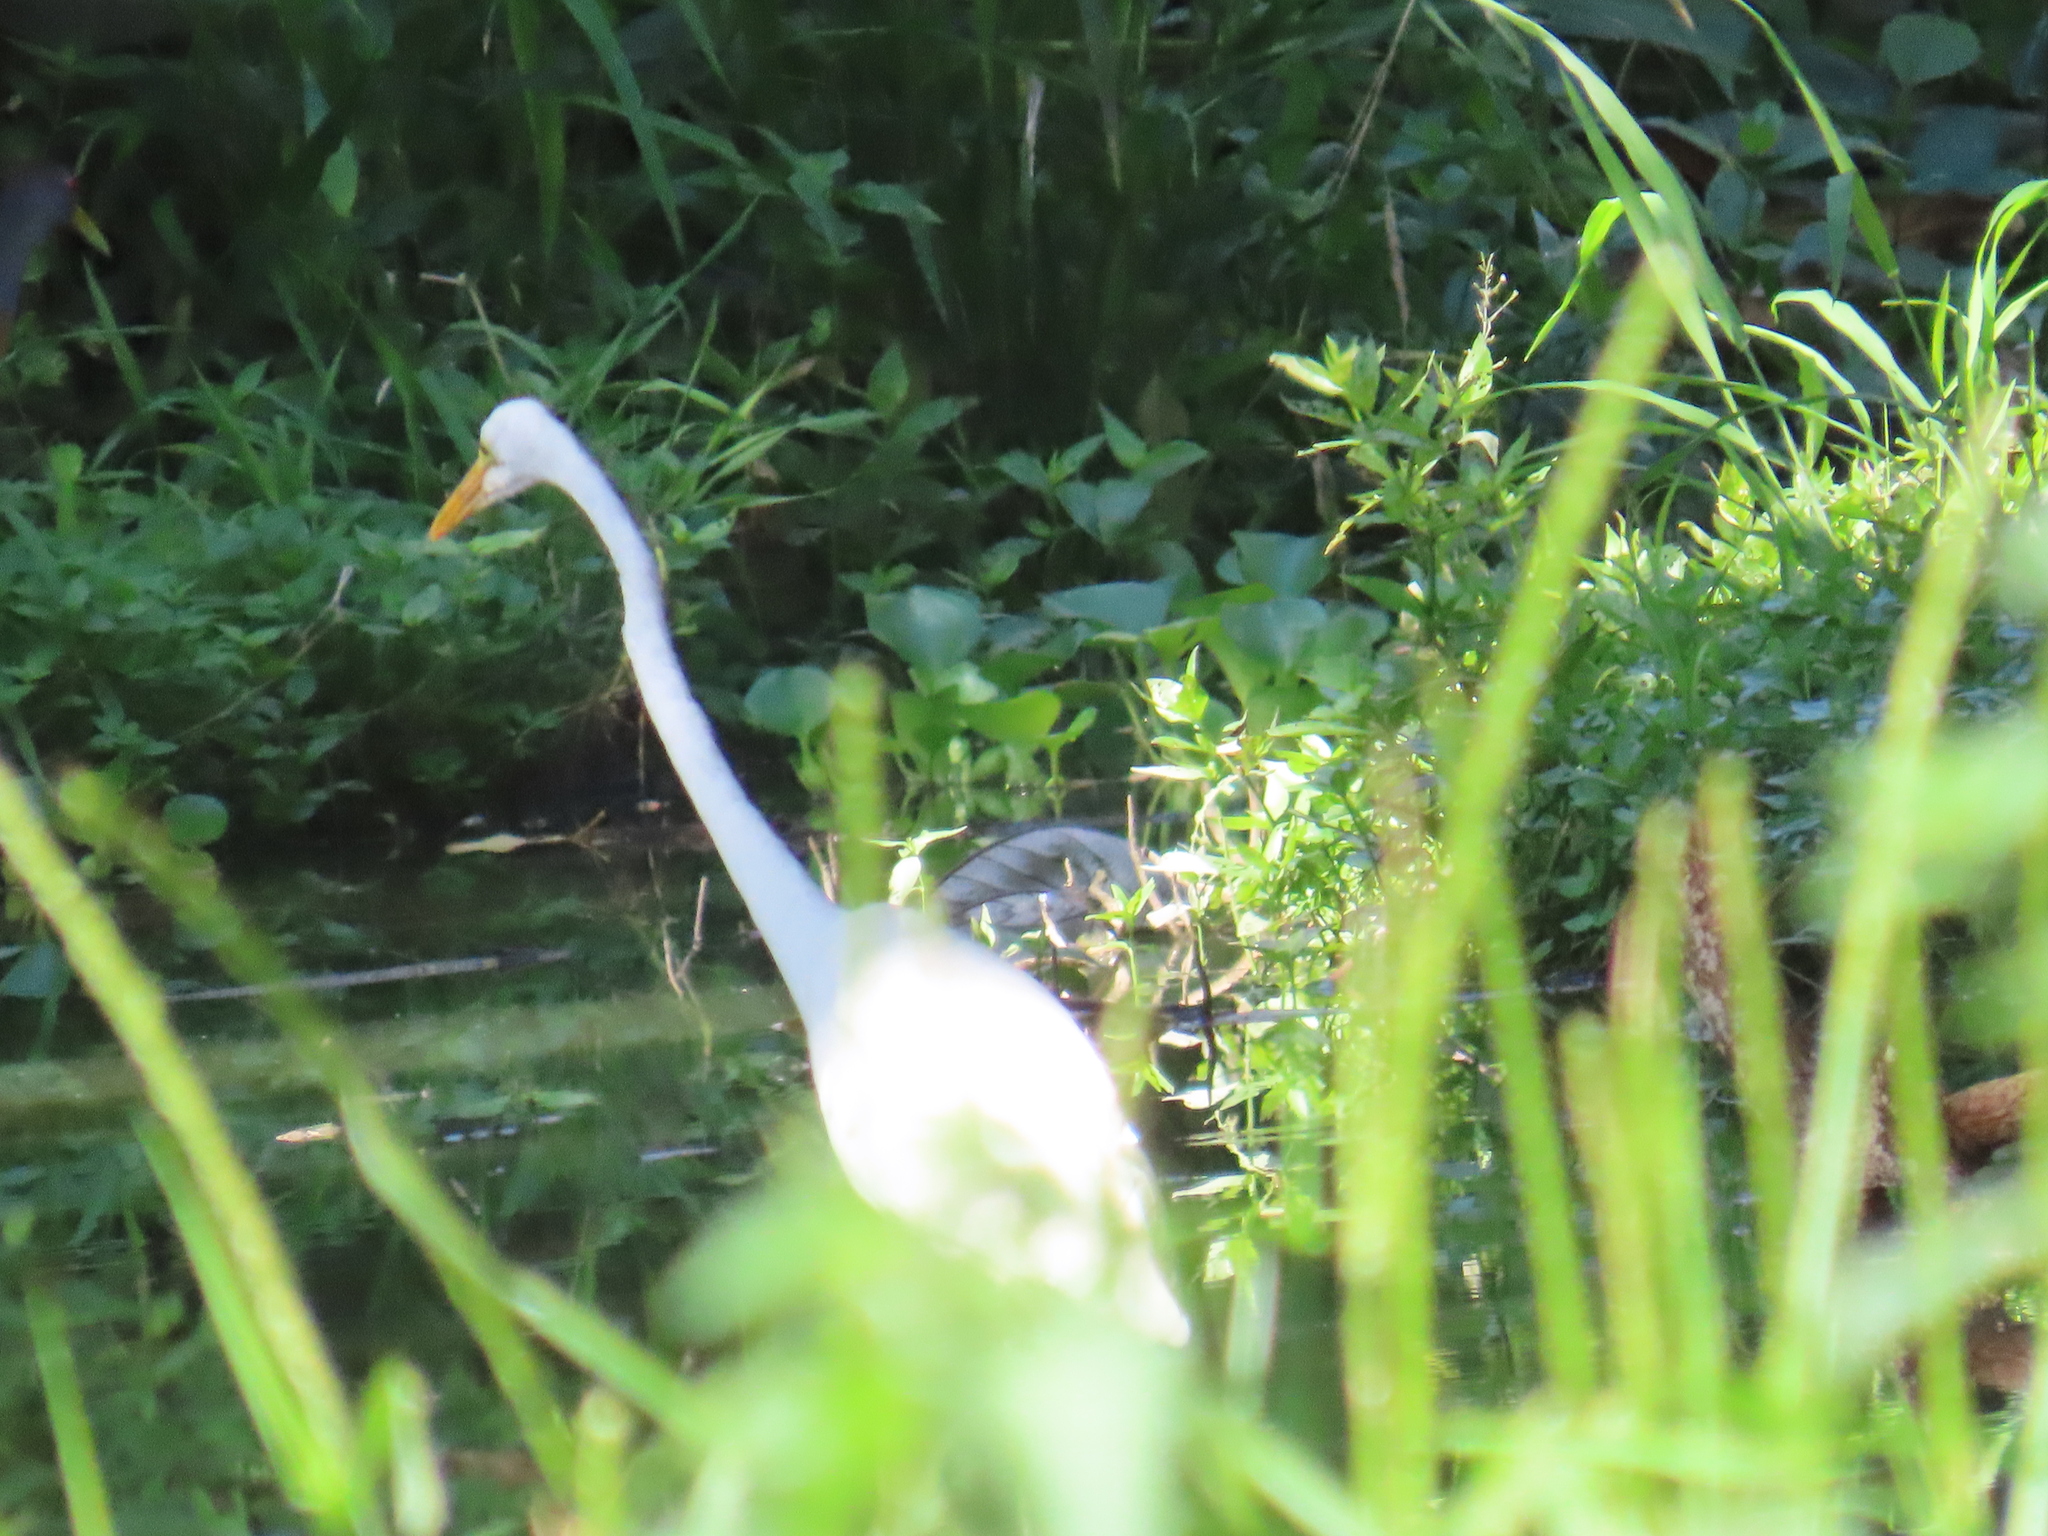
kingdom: Animalia
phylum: Chordata
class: Aves
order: Pelecaniformes
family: Ardeidae
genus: Ardea
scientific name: Ardea alba
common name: Great egret
